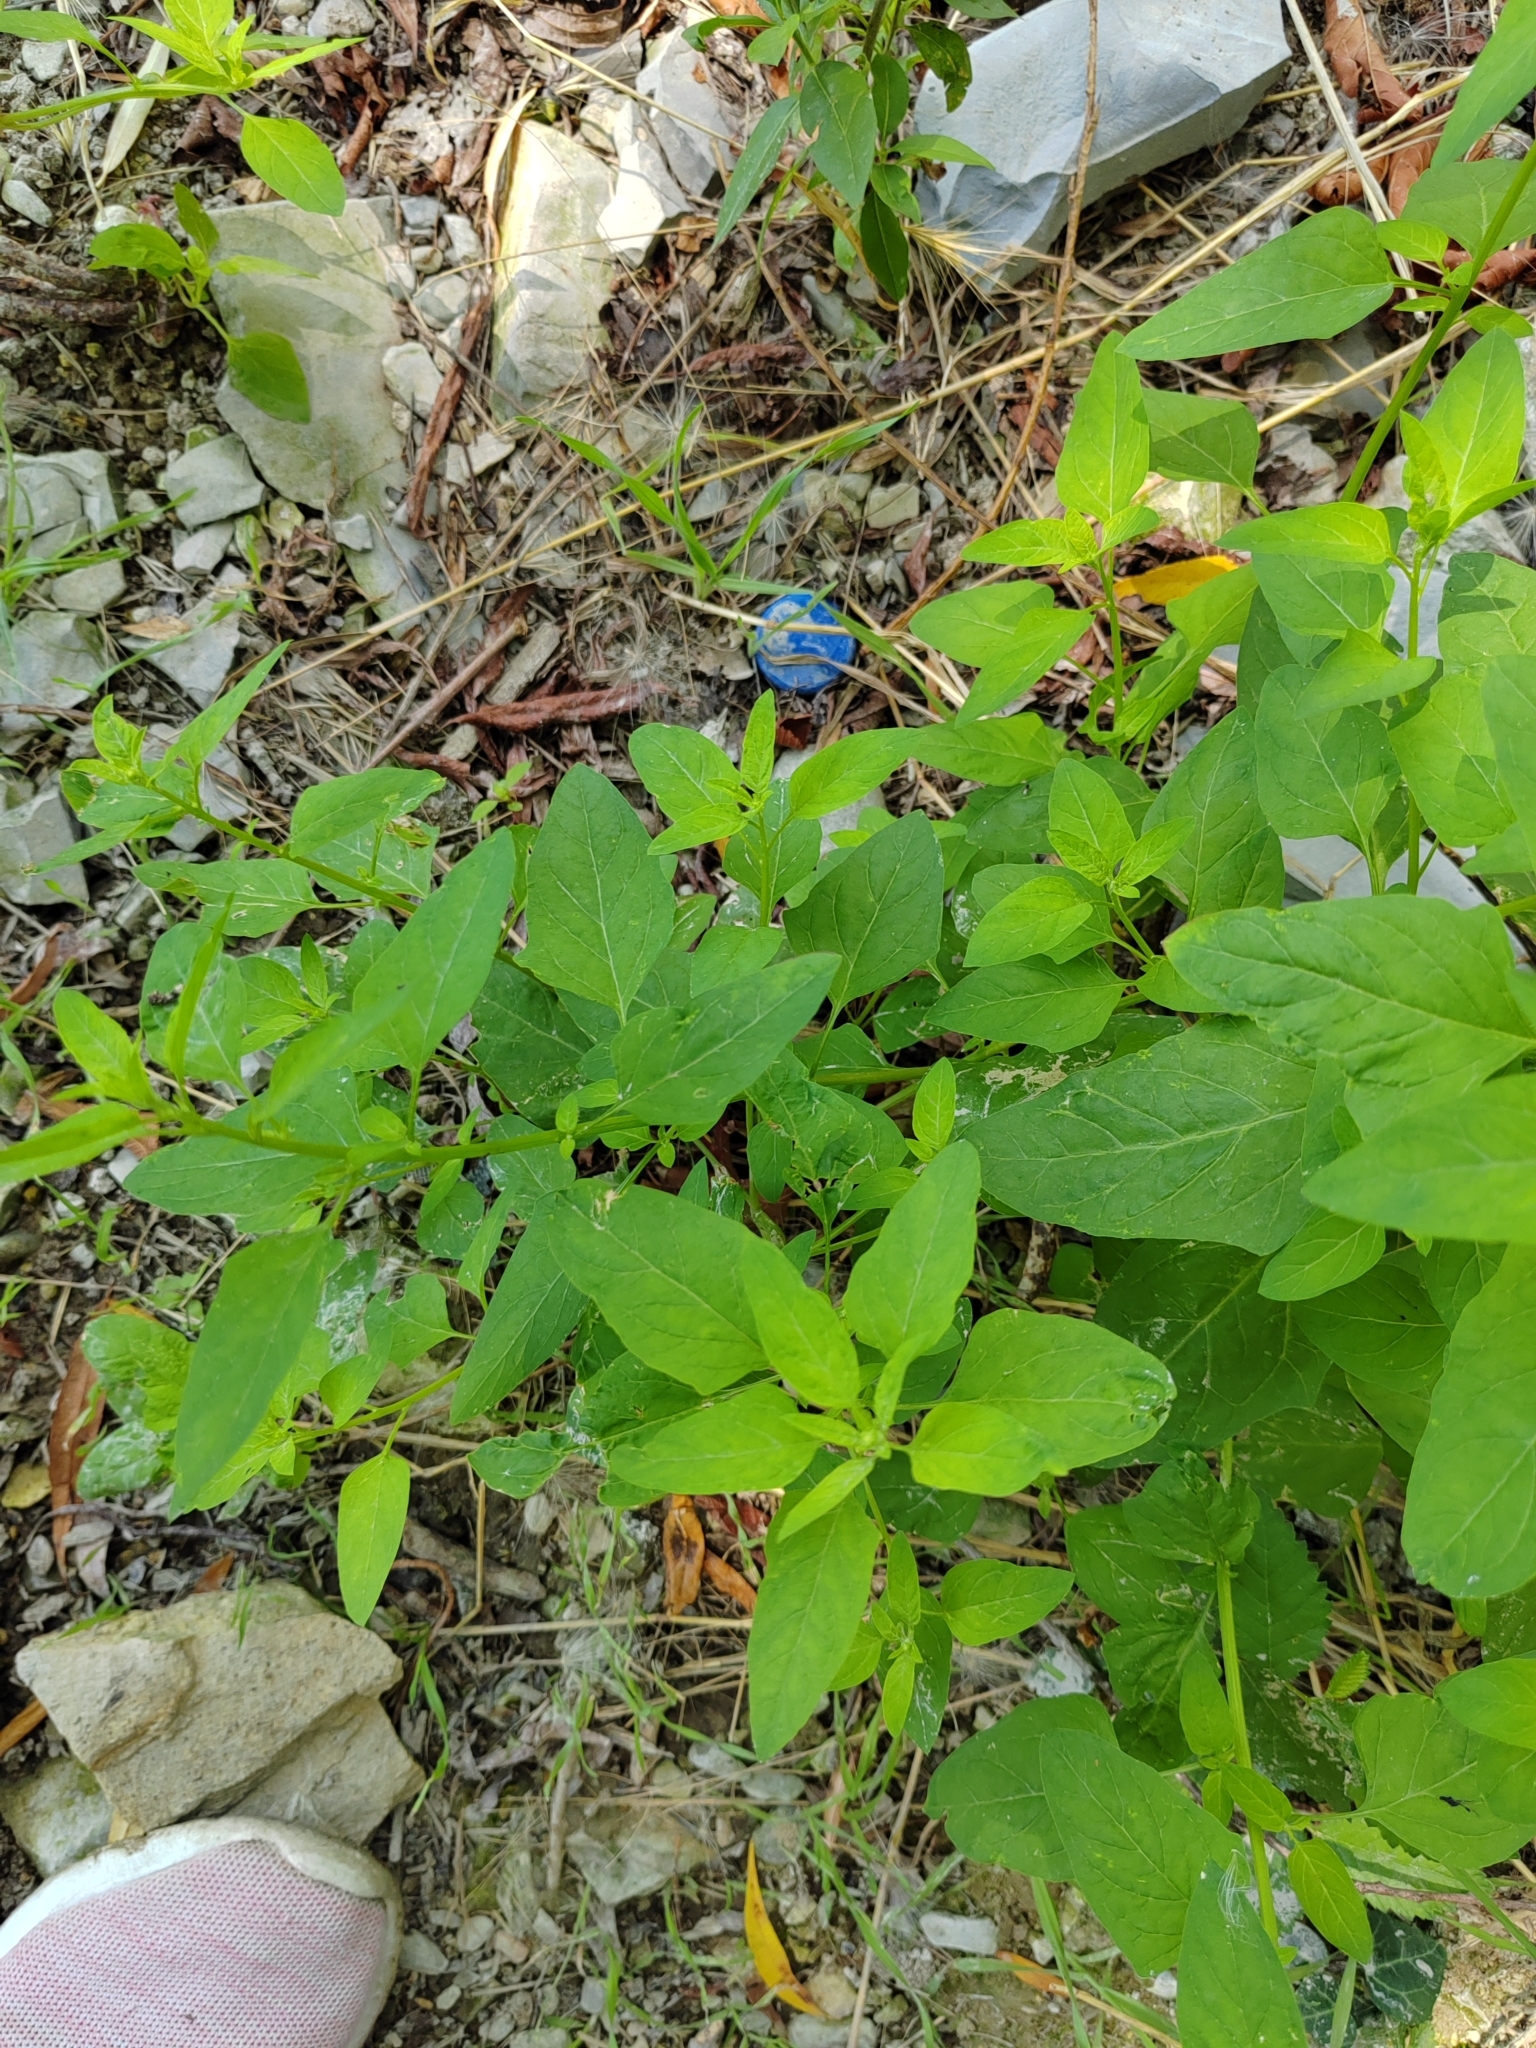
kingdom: Plantae
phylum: Tracheophyta
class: Magnoliopsida
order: Caryophyllales
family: Amaranthaceae
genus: Lipandra
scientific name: Lipandra polysperma
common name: Many-seed goosefoot
